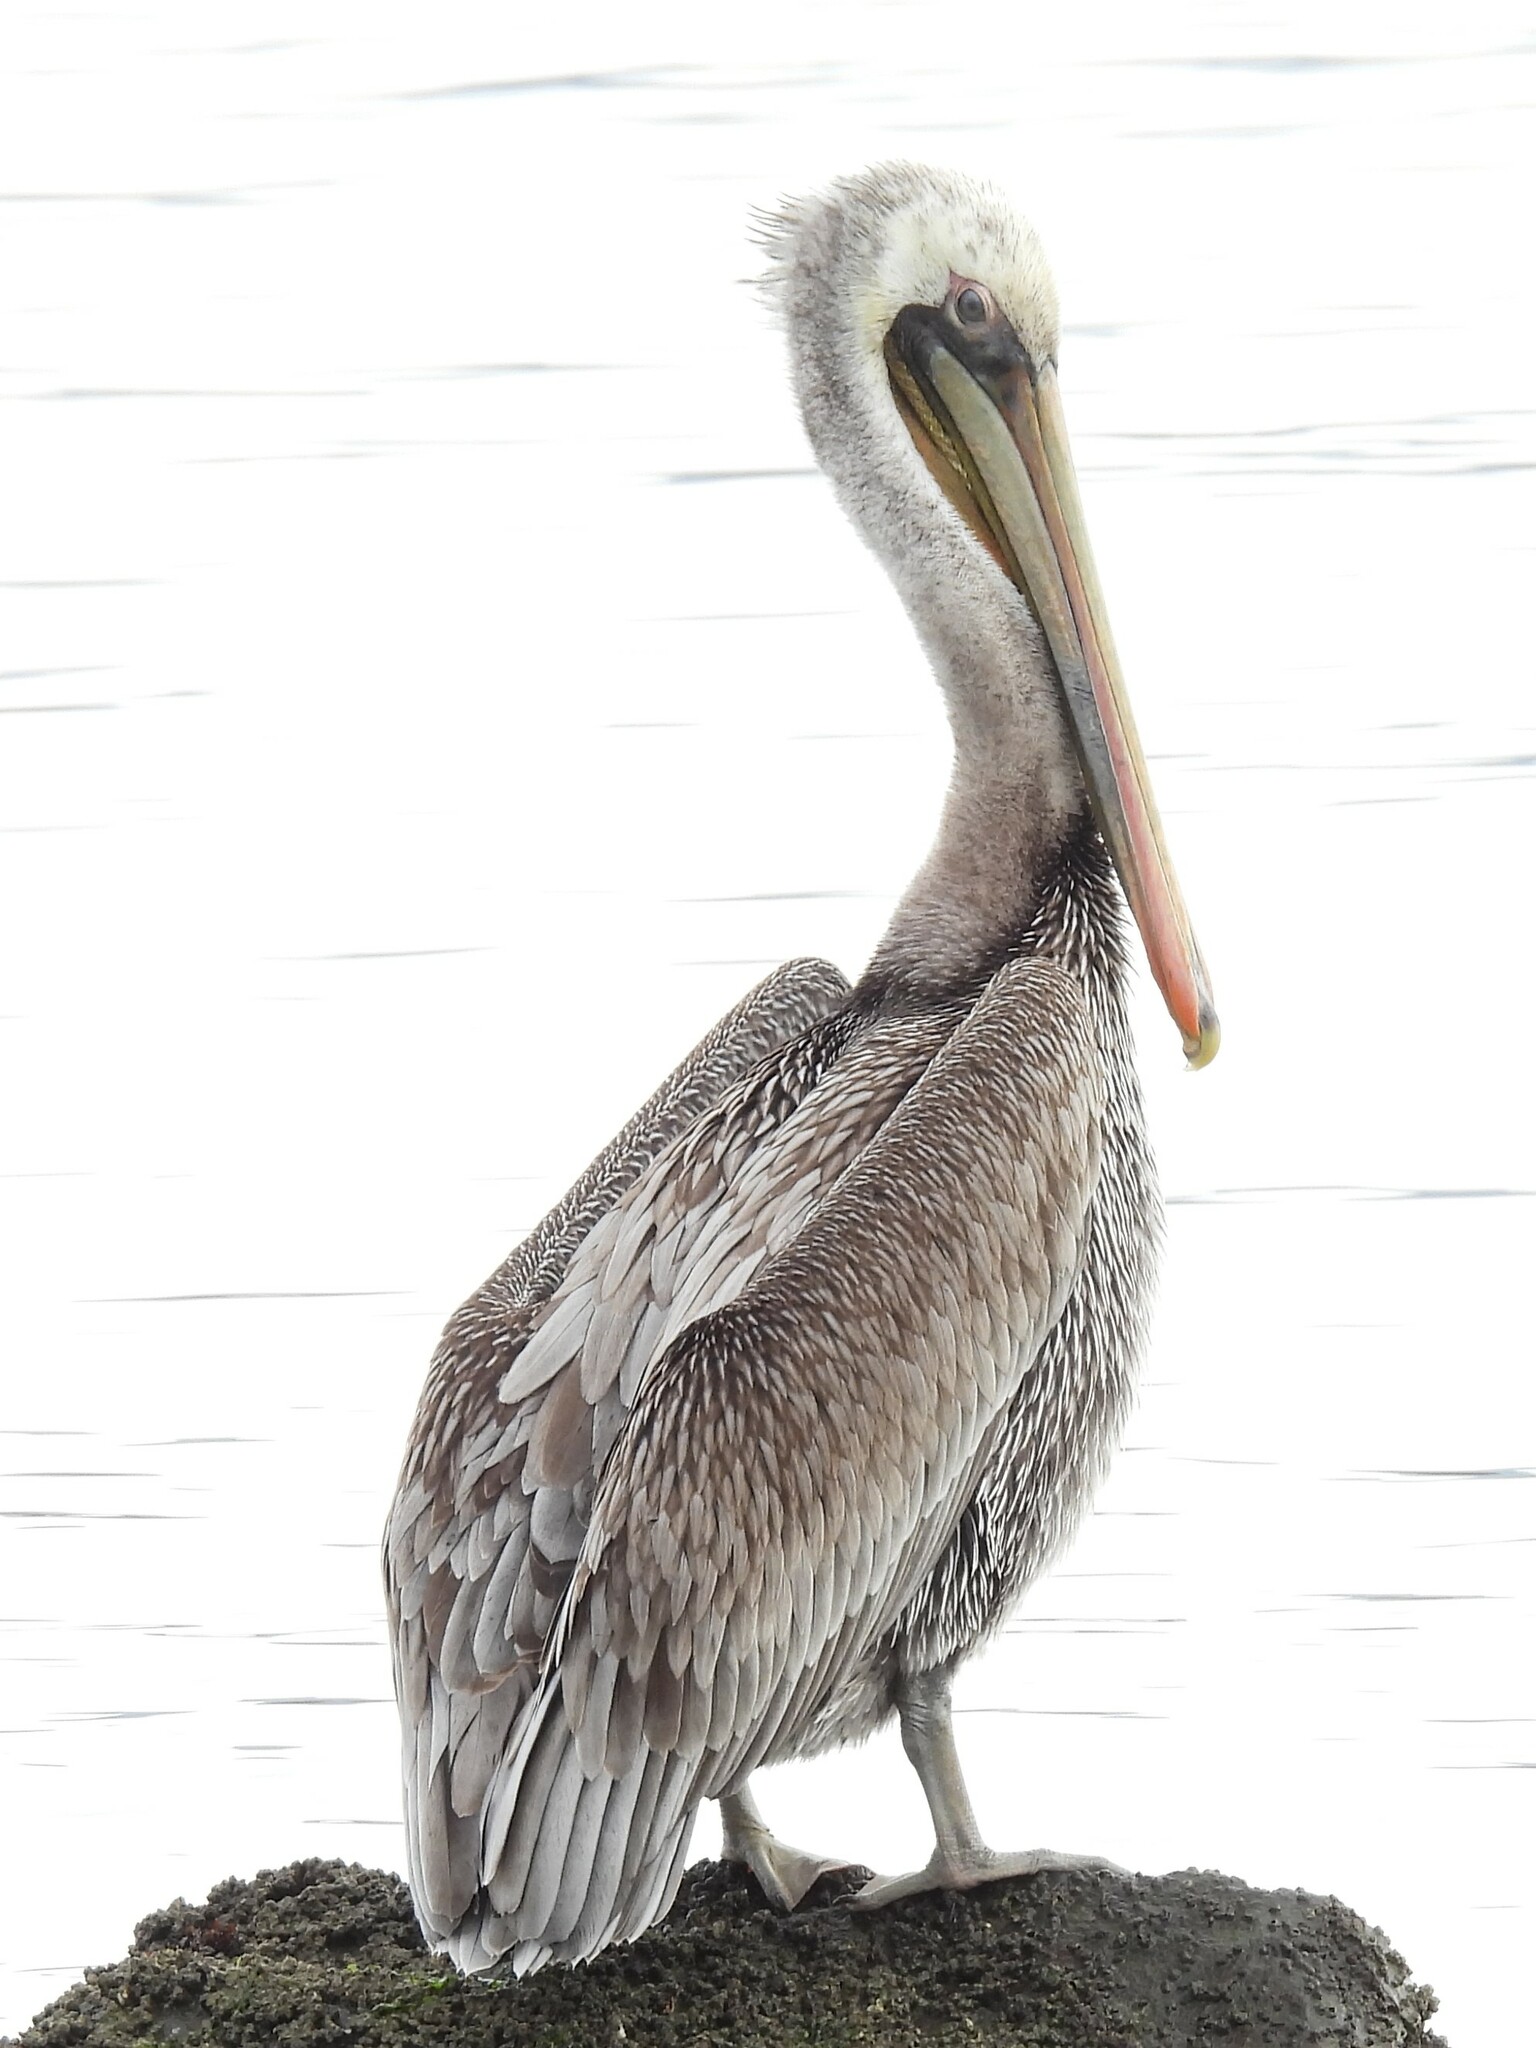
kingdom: Animalia
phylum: Chordata
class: Aves
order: Pelecaniformes
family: Pelecanidae
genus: Pelecanus
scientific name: Pelecanus occidentalis
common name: Brown pelican
